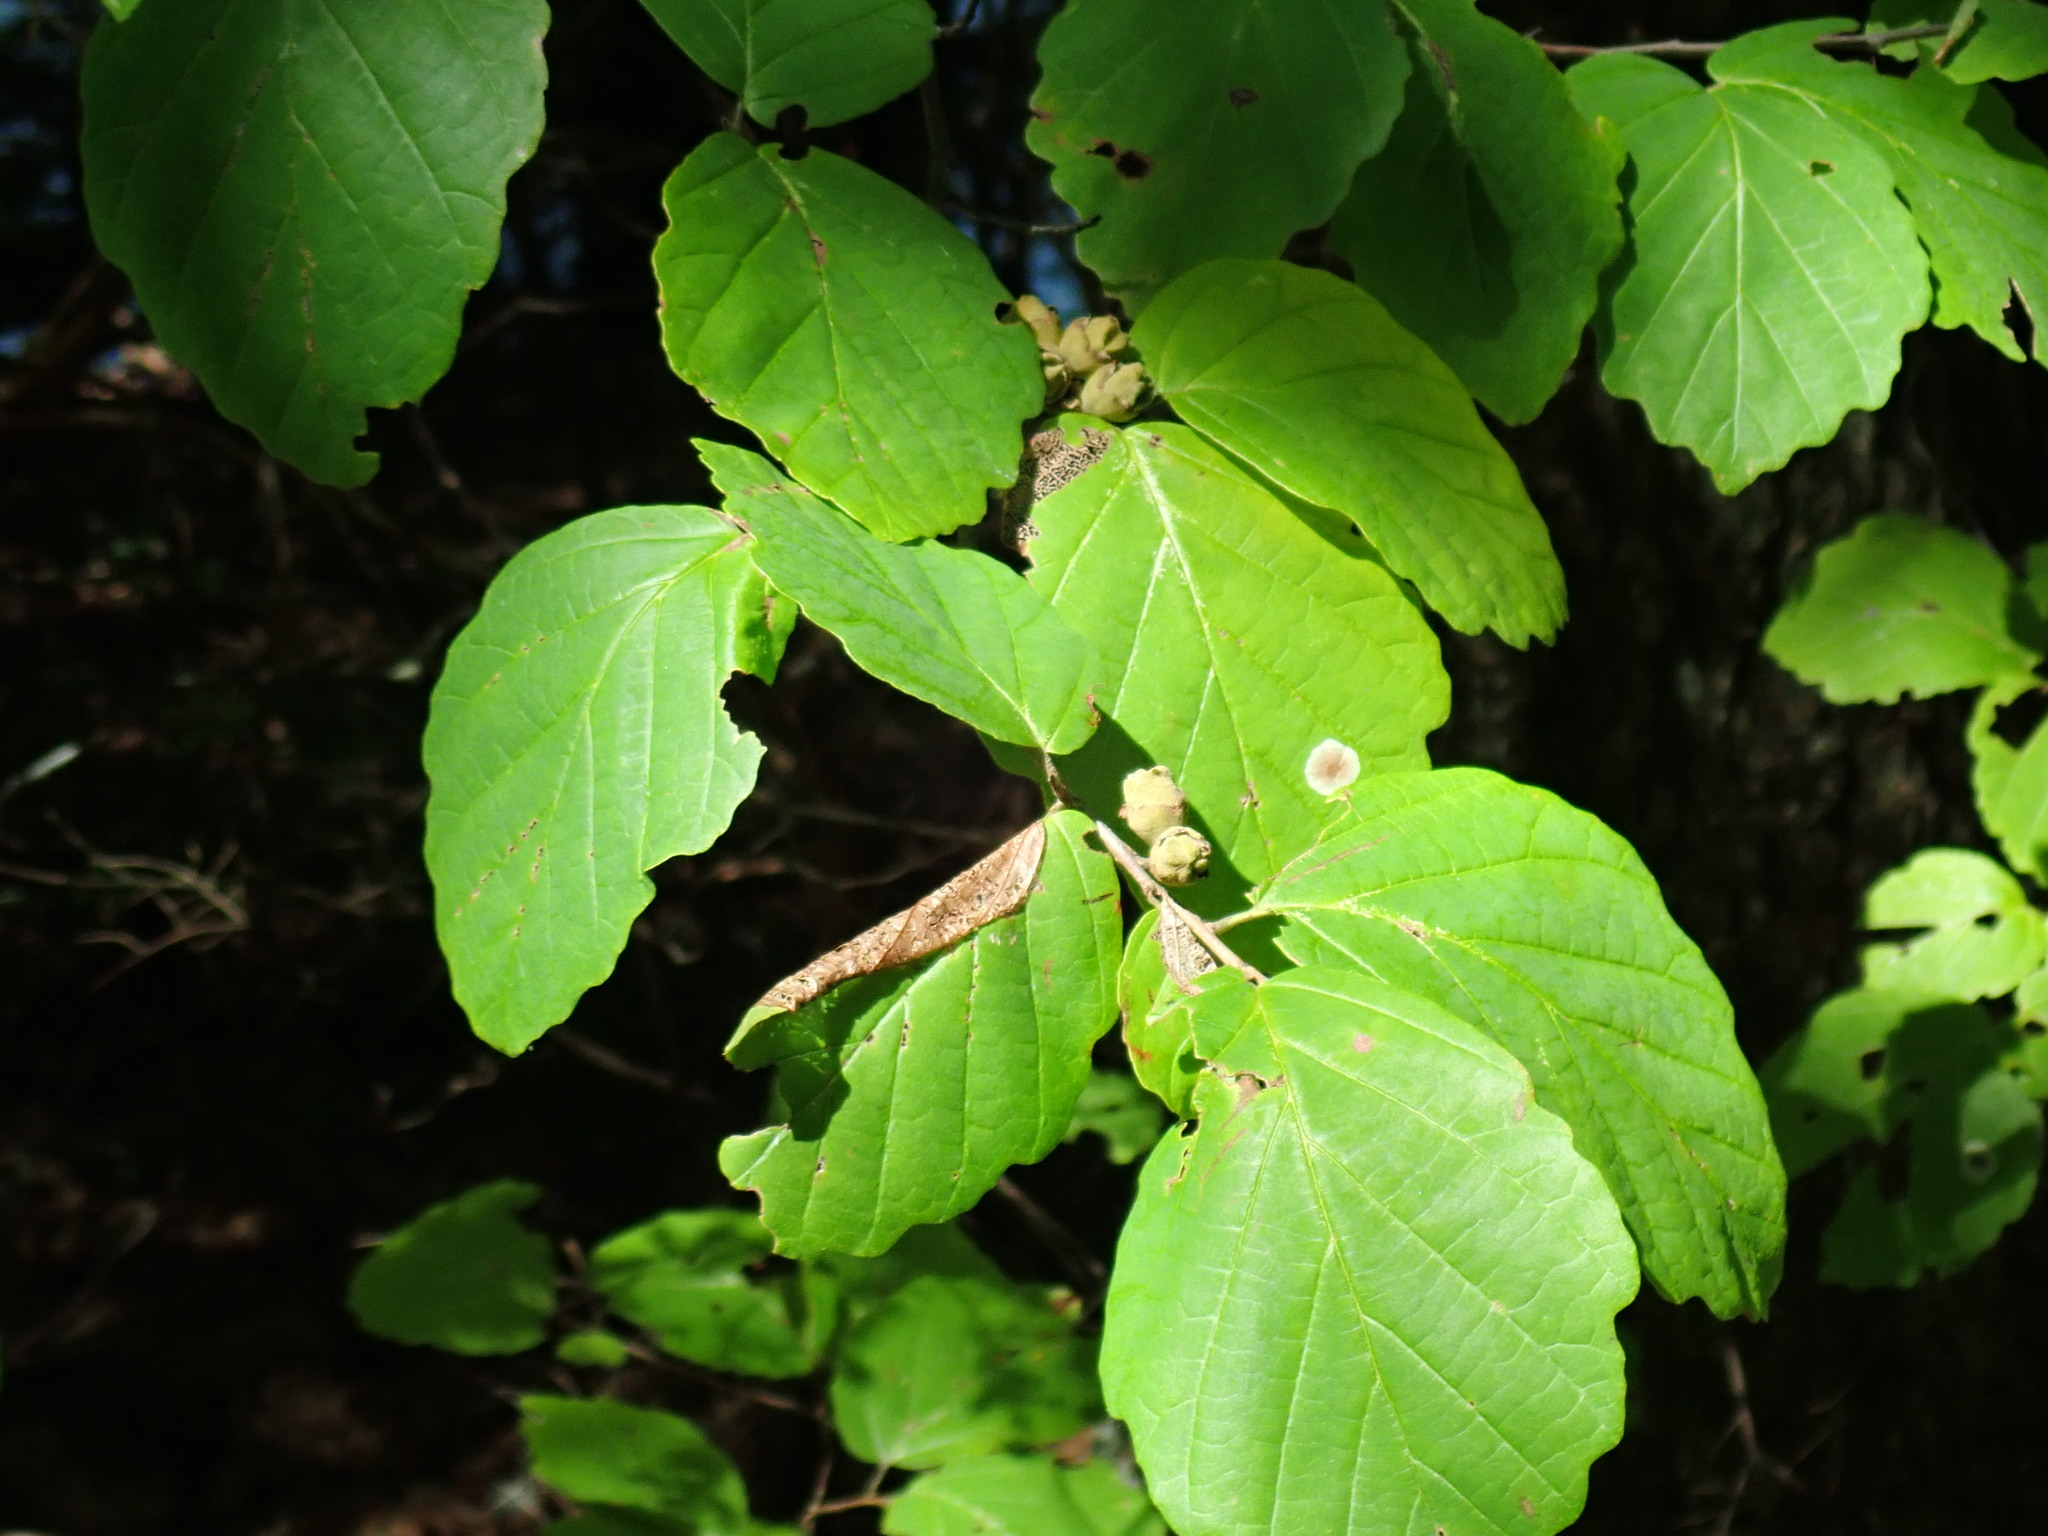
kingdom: Plantae
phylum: Tracheophyta
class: Magnoliopsida
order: Saxifragales
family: Hamamelidaceae
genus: Hamamelis
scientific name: Hamamelis virginiana
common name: Witch-hazel
